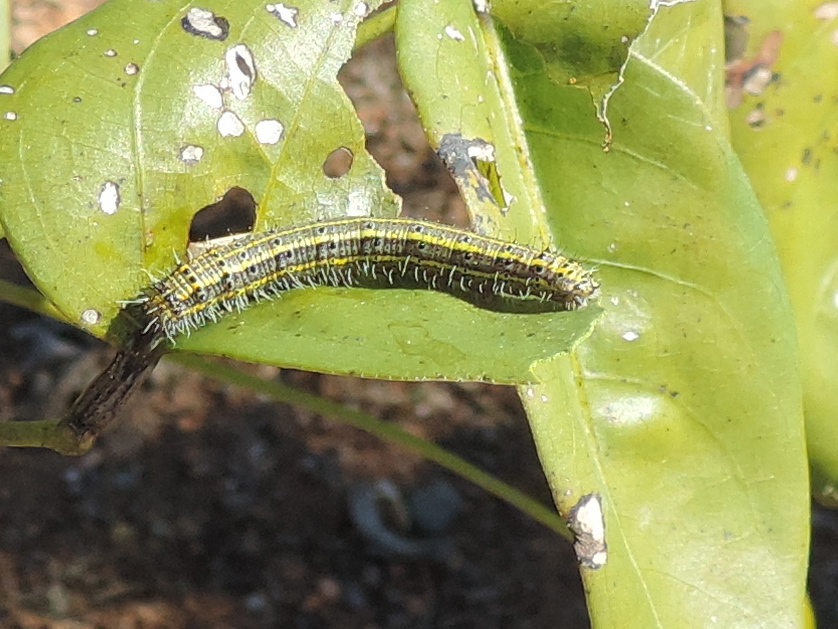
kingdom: Animalia
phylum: Arthropoda
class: Insecta
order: Lepidoptera
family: Pieridae
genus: Ascia
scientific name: Ascia monuste
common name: Great southern white
